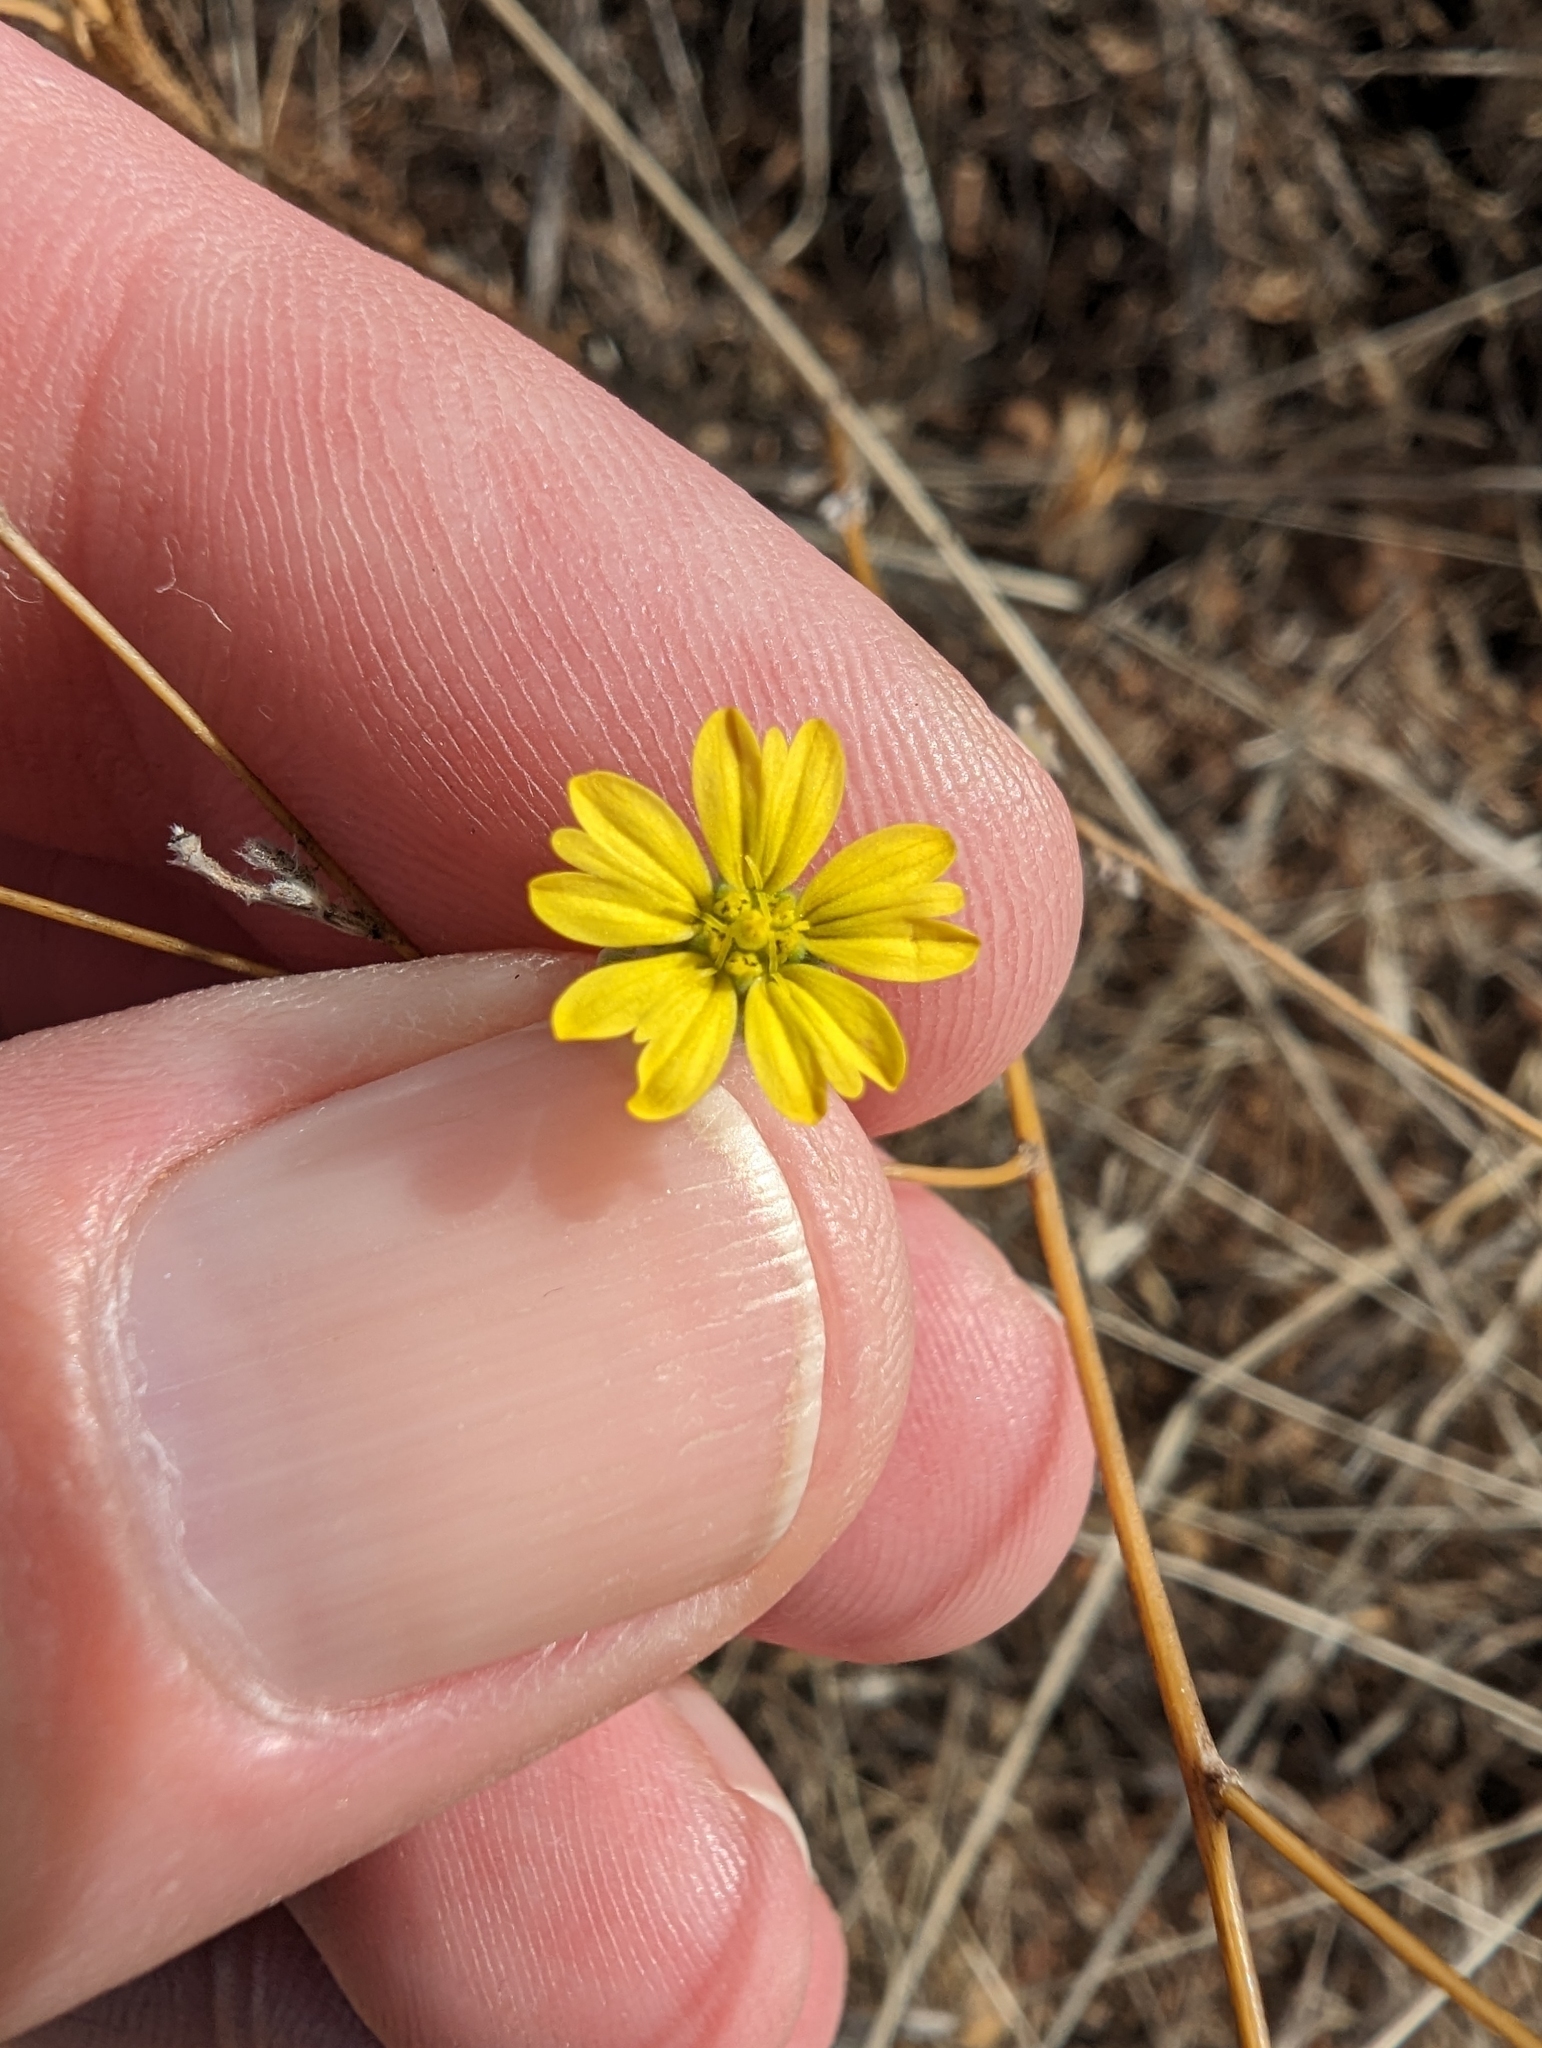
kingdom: Plantae
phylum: Tracheophyta
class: Magnoliopsida
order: Asterales
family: Asteraceae
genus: Lagophylla
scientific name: Lagophylla ramosissima
